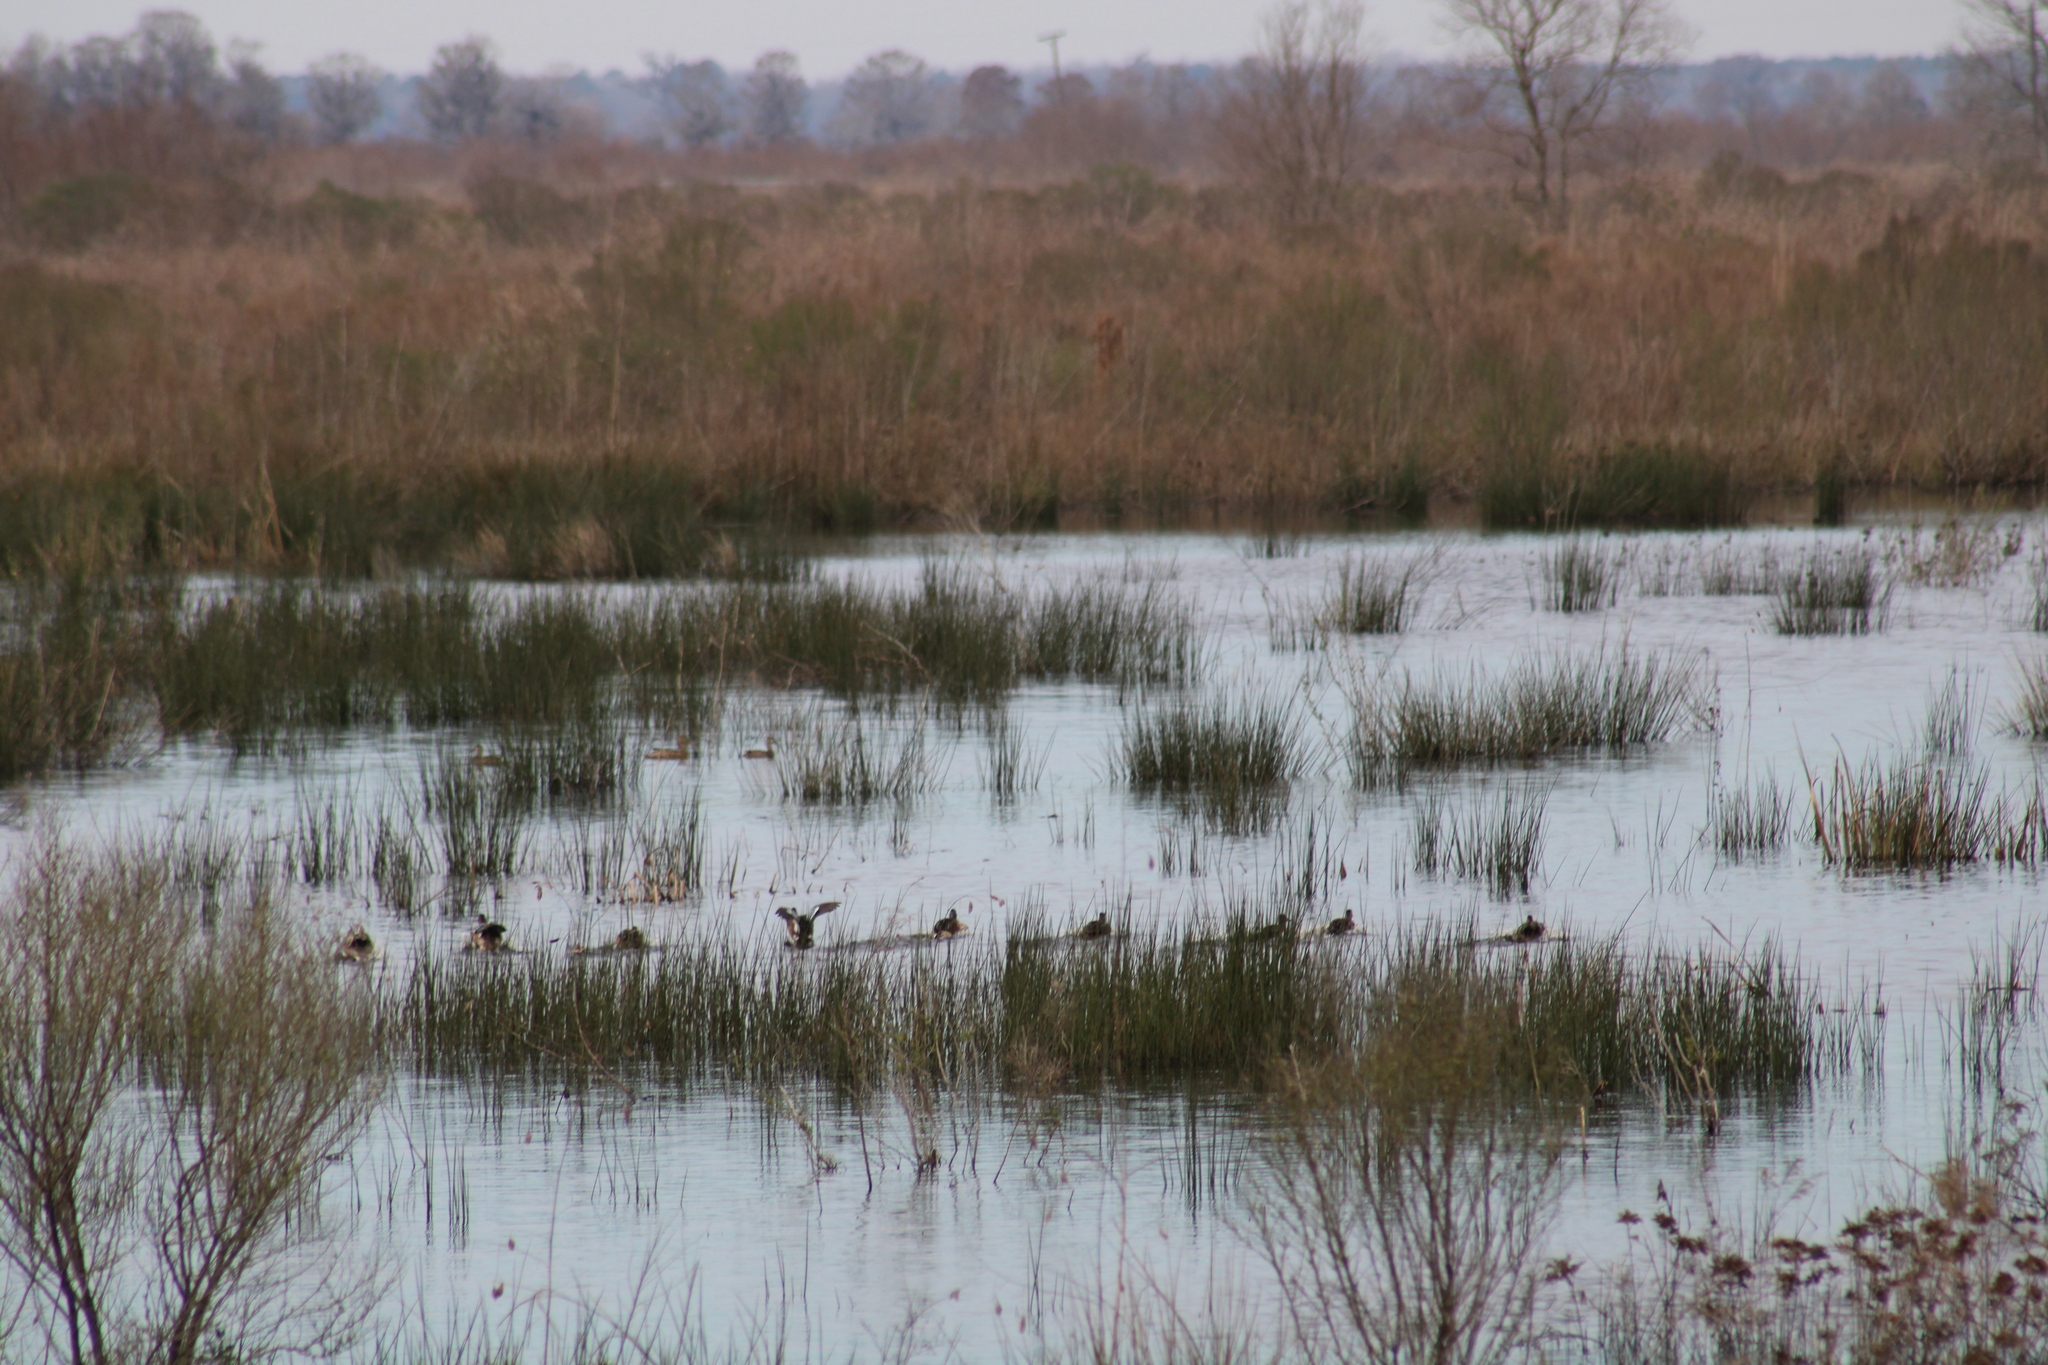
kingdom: Animalia
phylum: Chordata
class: Aves
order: Anseriformes
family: Anatidae
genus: Spatula
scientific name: Spatula discors
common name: Blue-winged teal
